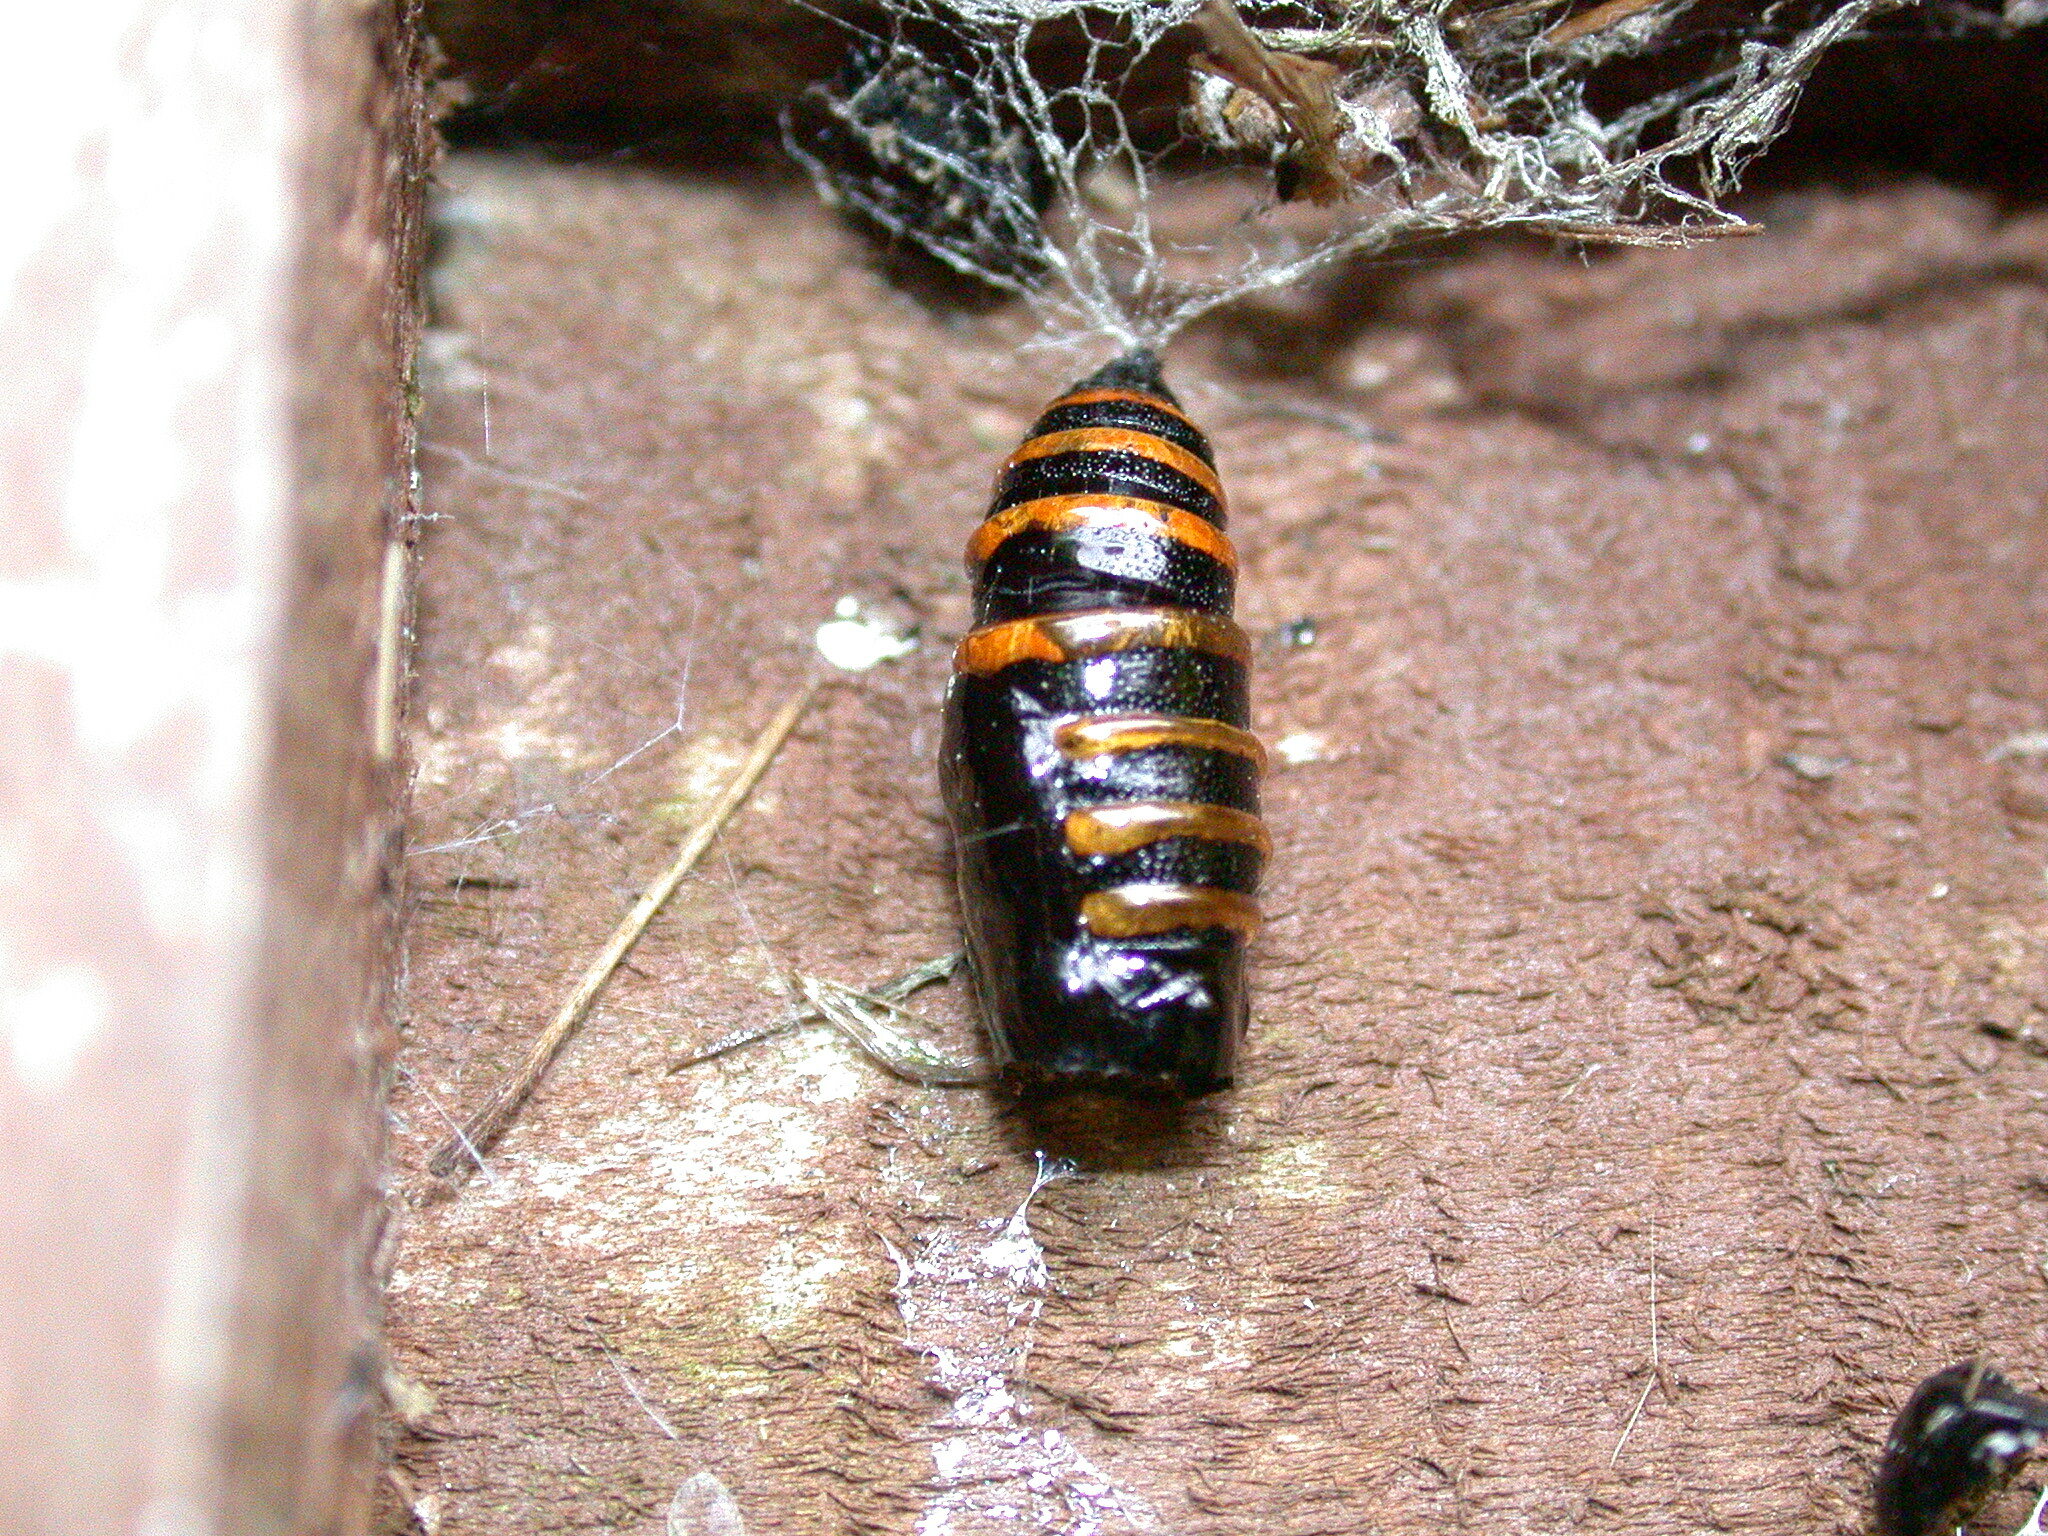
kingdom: Animalia
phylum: Arthropoda
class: Insecta
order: Lepidoptera
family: Geometridae
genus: Abraxas
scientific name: Abraxas grossulariata
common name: Magpie
